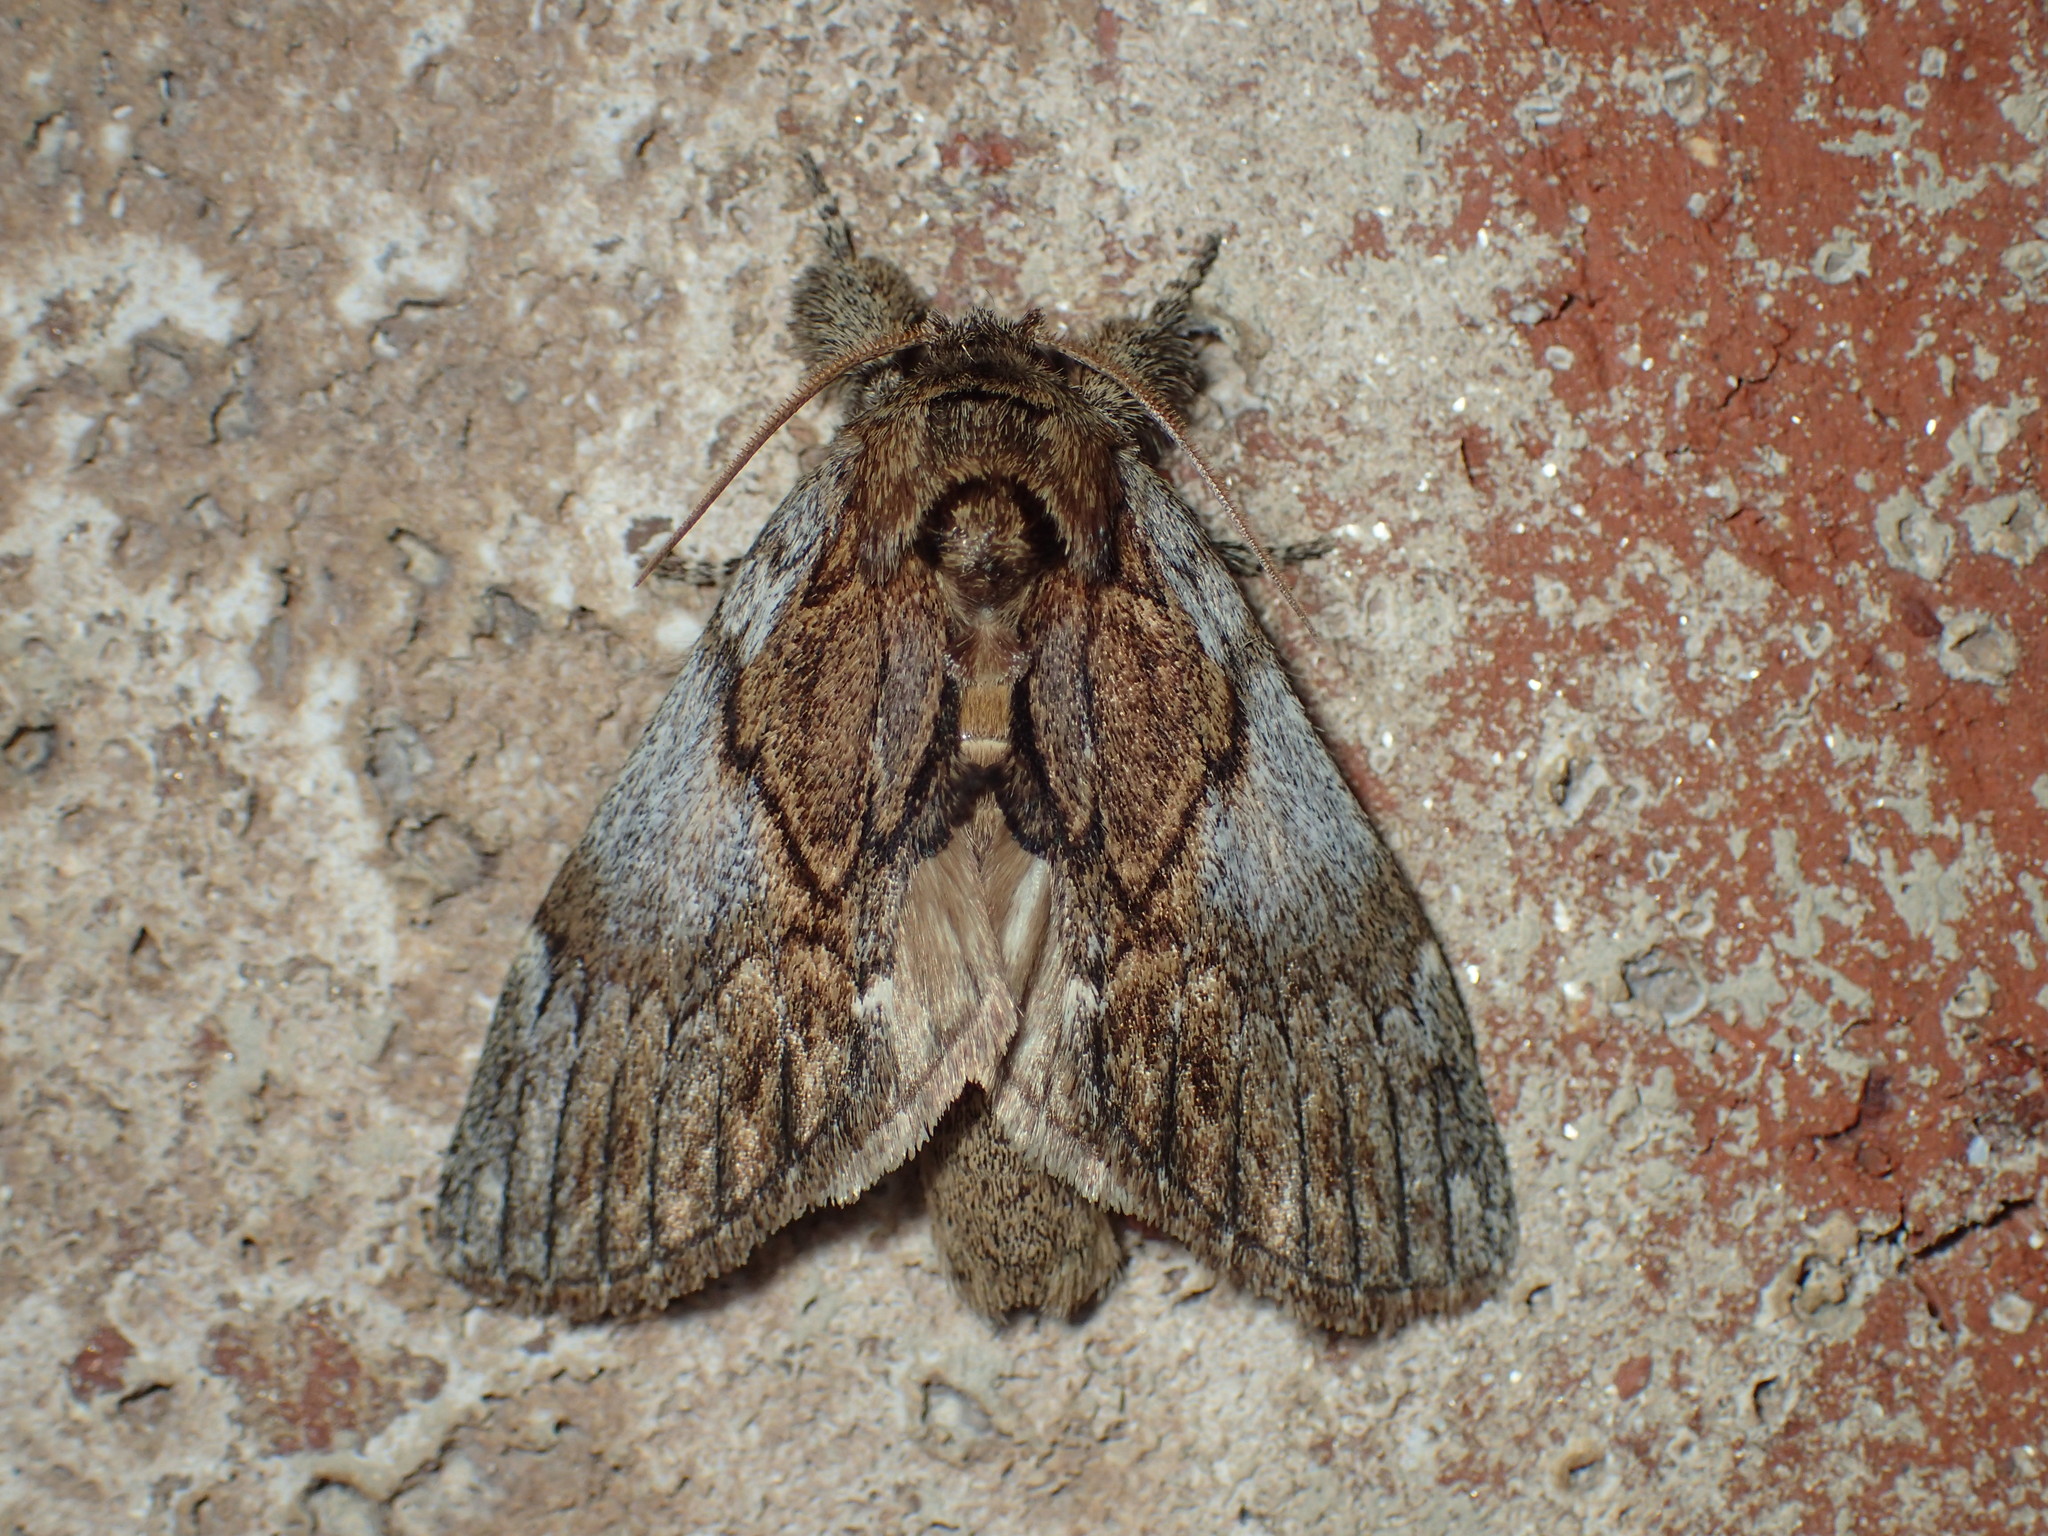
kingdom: Animalia
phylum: Arthropoda
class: Insecta
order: Lepidoptera
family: Notodontidae
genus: Peridea
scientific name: Peridea basitriens
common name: Oval-based prominent
